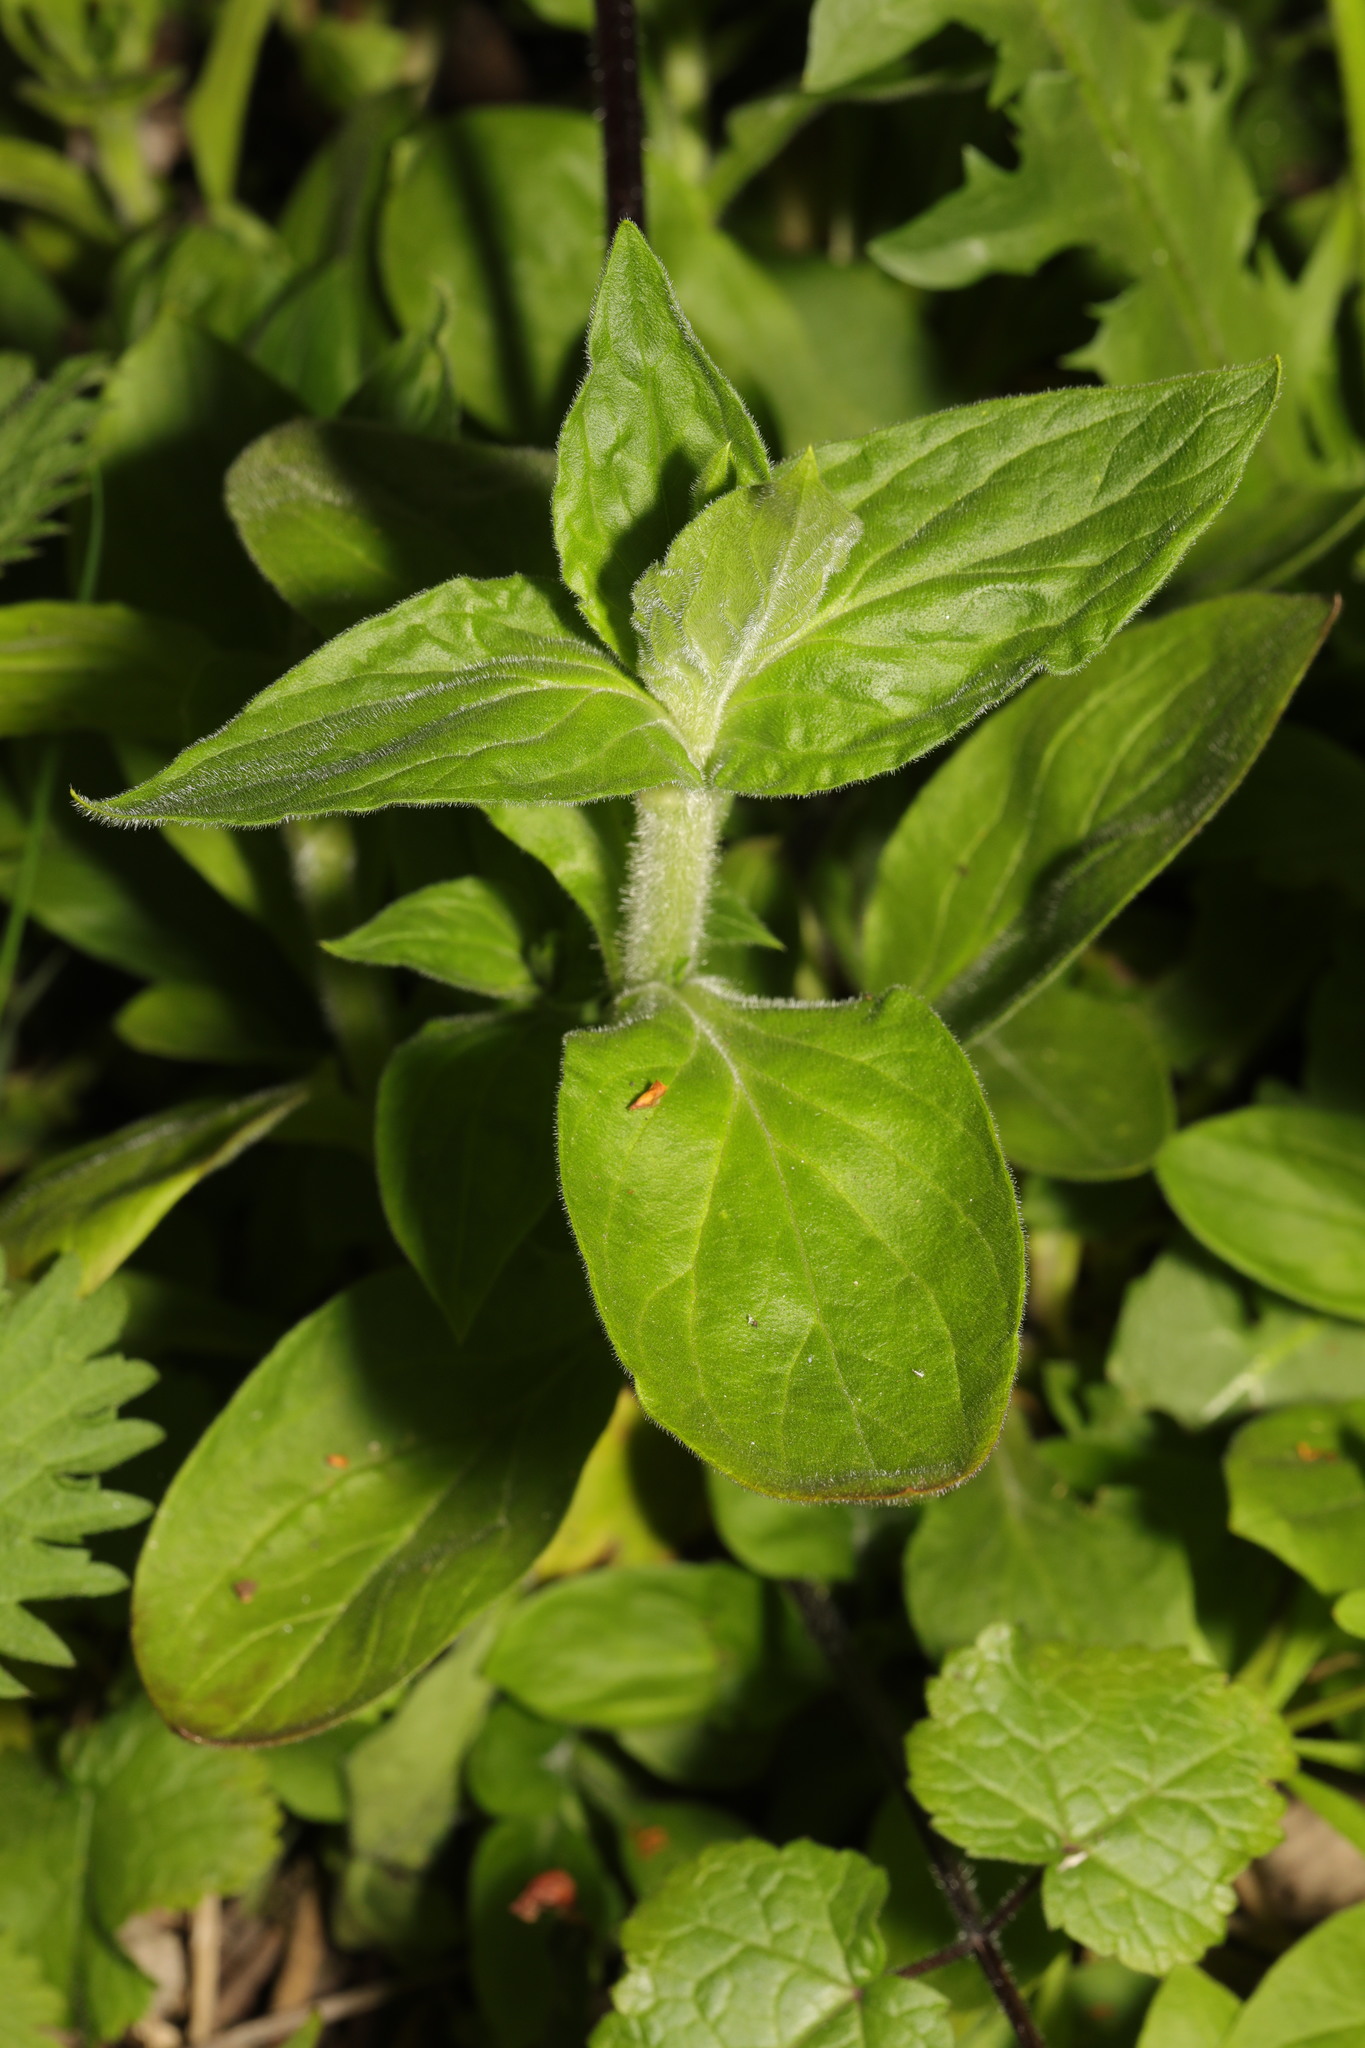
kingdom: Plantae
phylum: Tracheophyta
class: Magnoliopsida
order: Caryophyllales
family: Caryophyllaceae
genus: Silene
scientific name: Silene dioica
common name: Red campion
